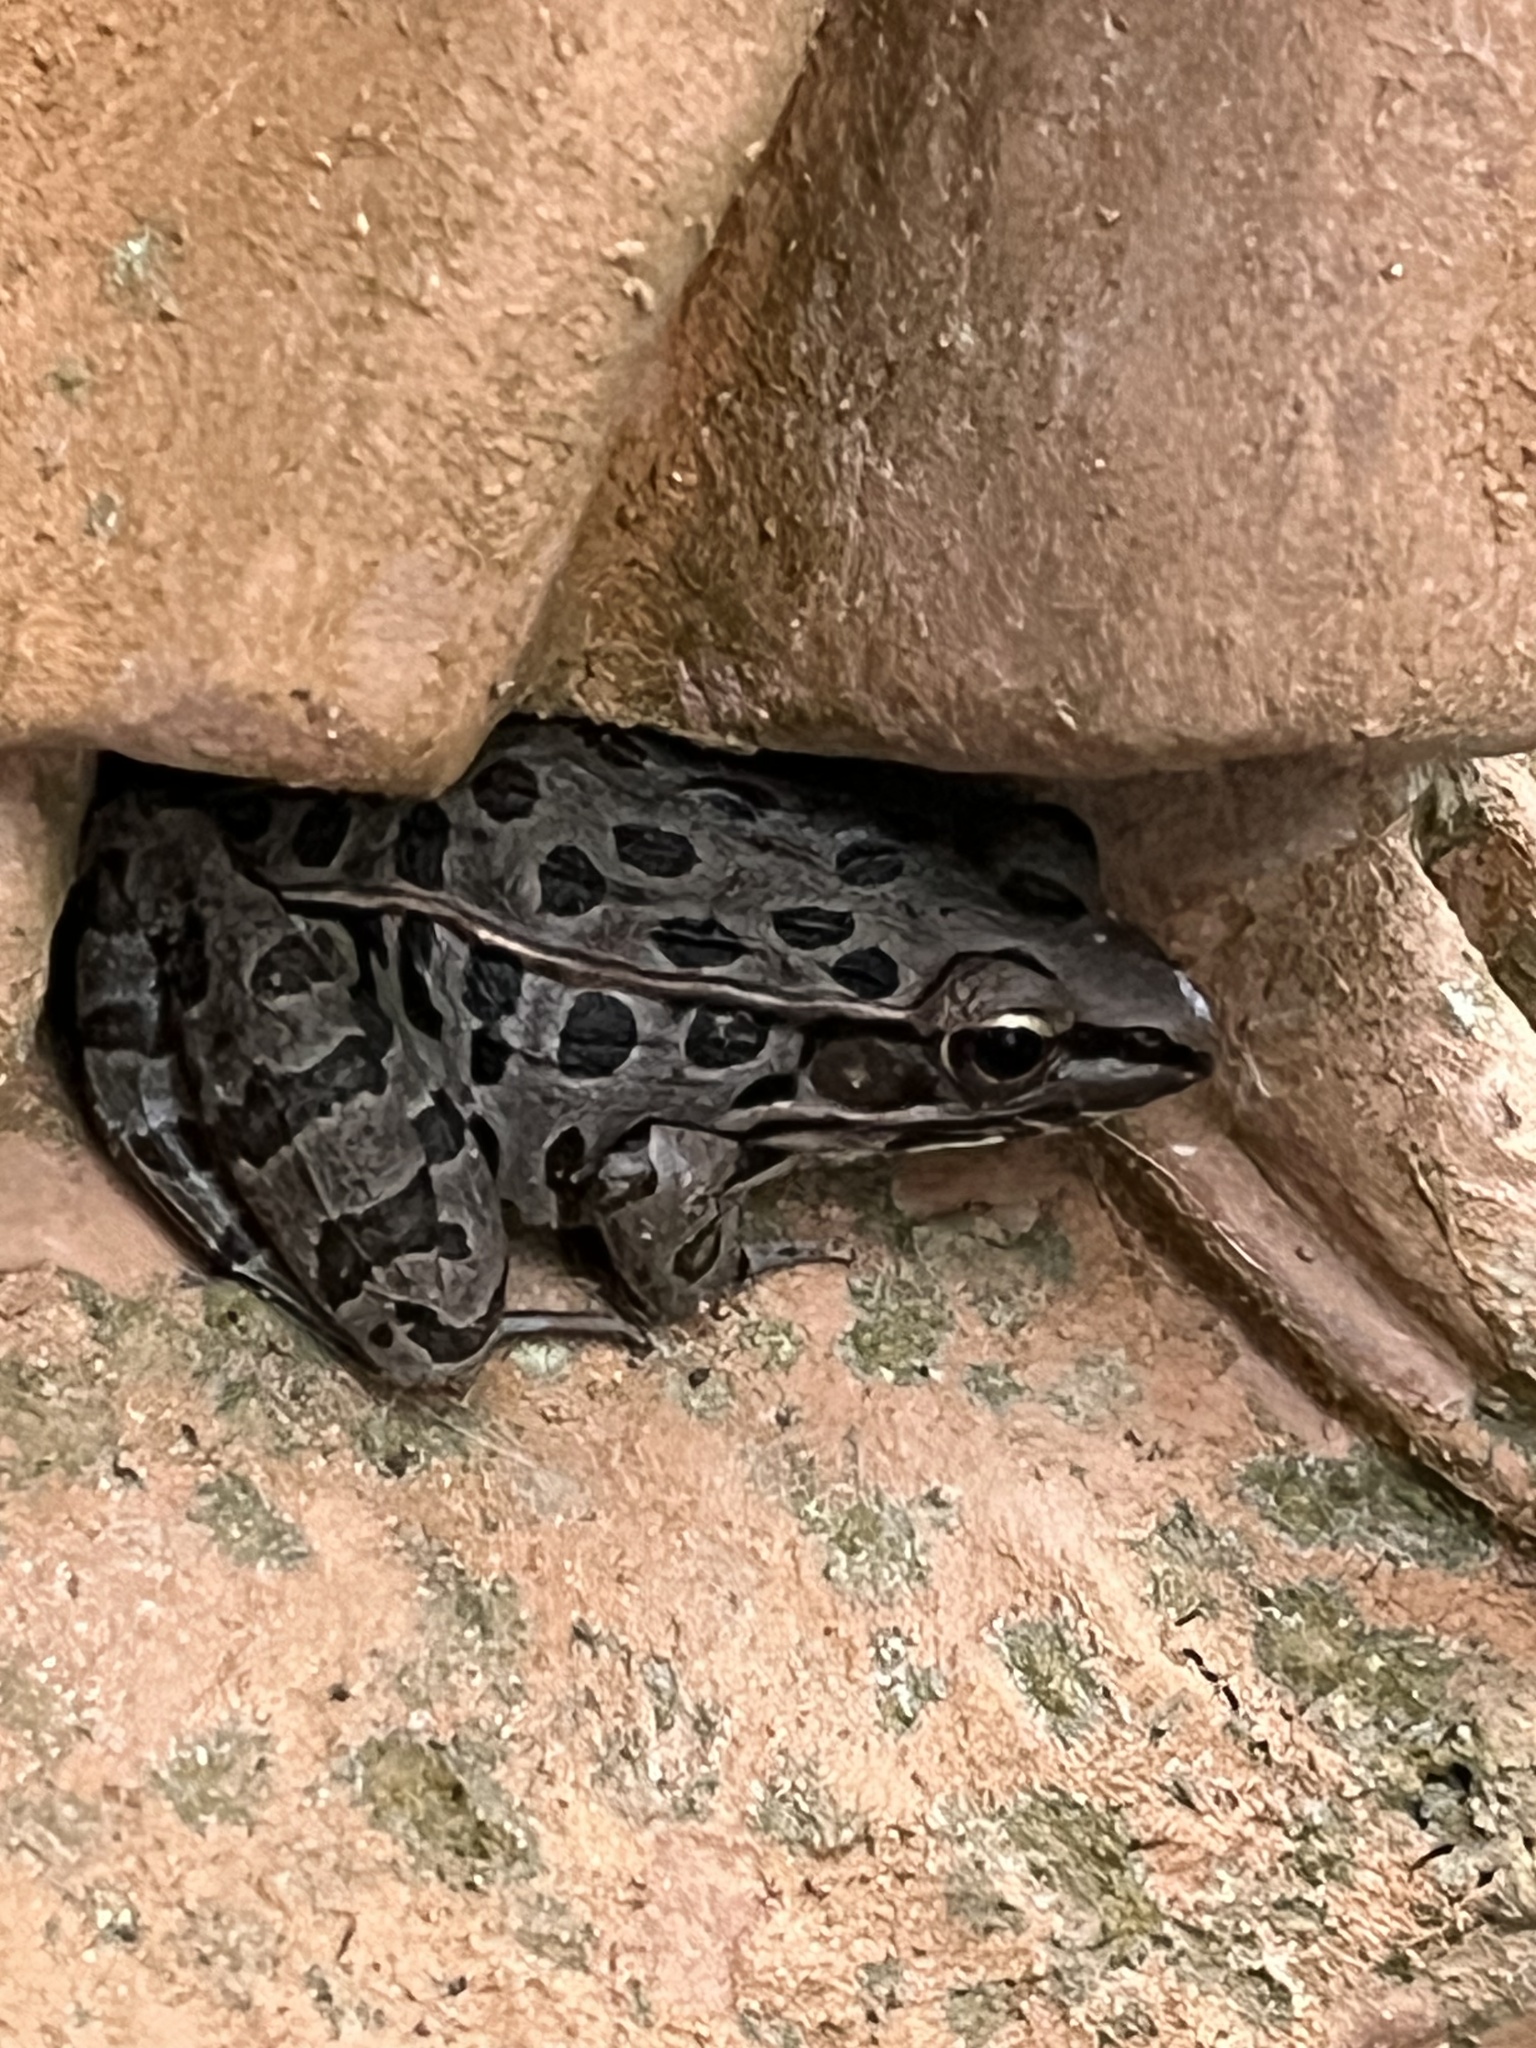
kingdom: Animalia
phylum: Chordata
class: Amphibia
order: Anura
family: Ranidae
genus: Lithobates
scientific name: Lithobates sphenocephalus
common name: Southern leopard frog
